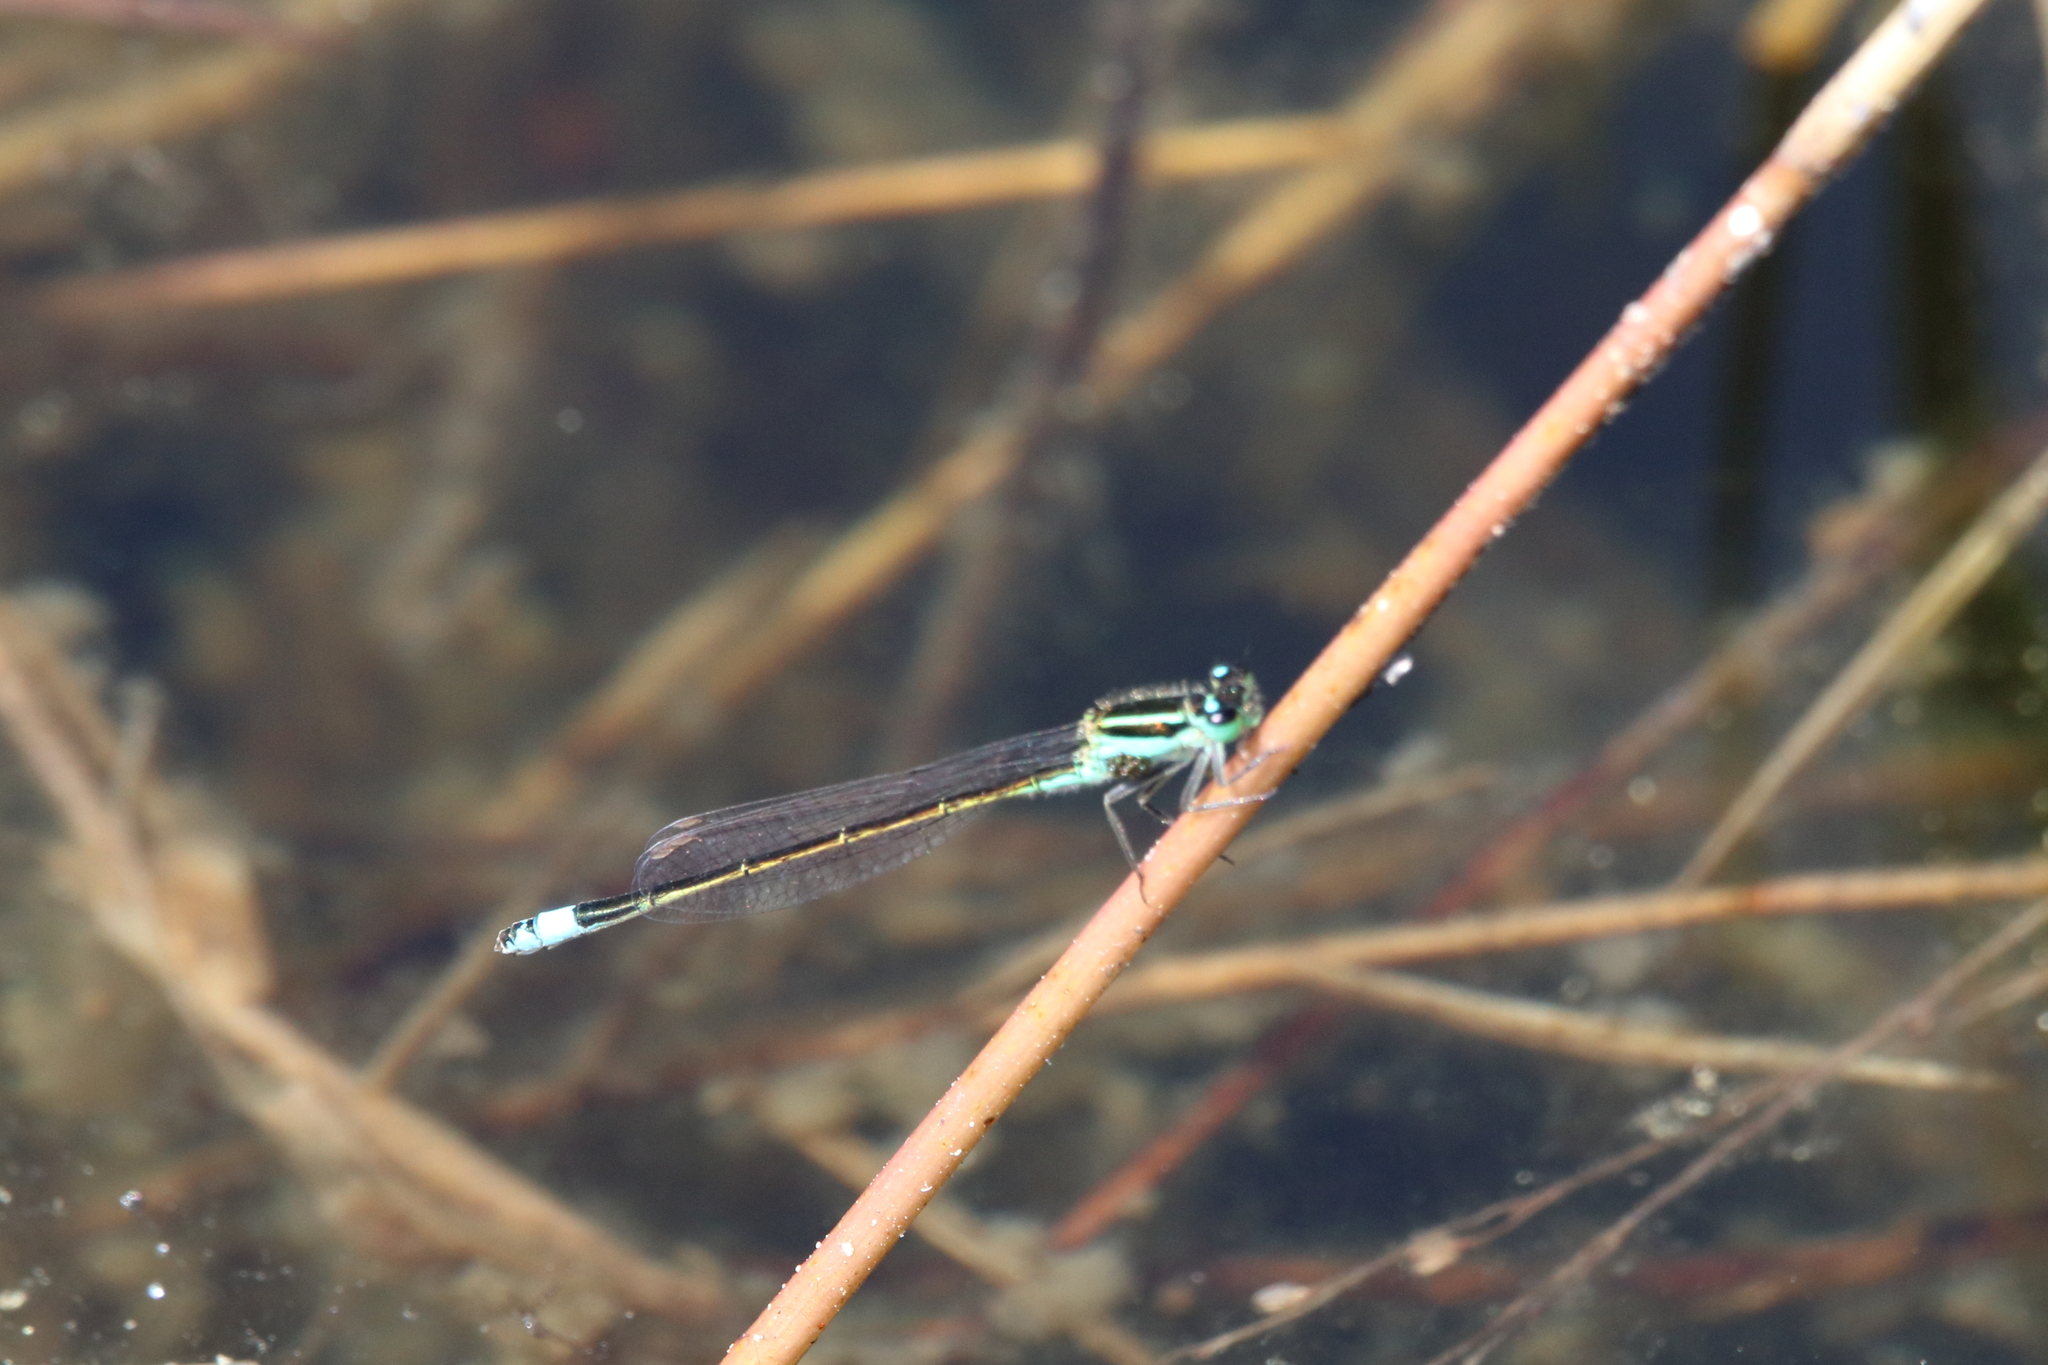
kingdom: Animalia
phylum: Arthropoda
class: Insecta
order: Odonata
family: Coenagrionidae
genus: Ischnura
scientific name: Ischnura ramburii
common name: Rambur's forktail
